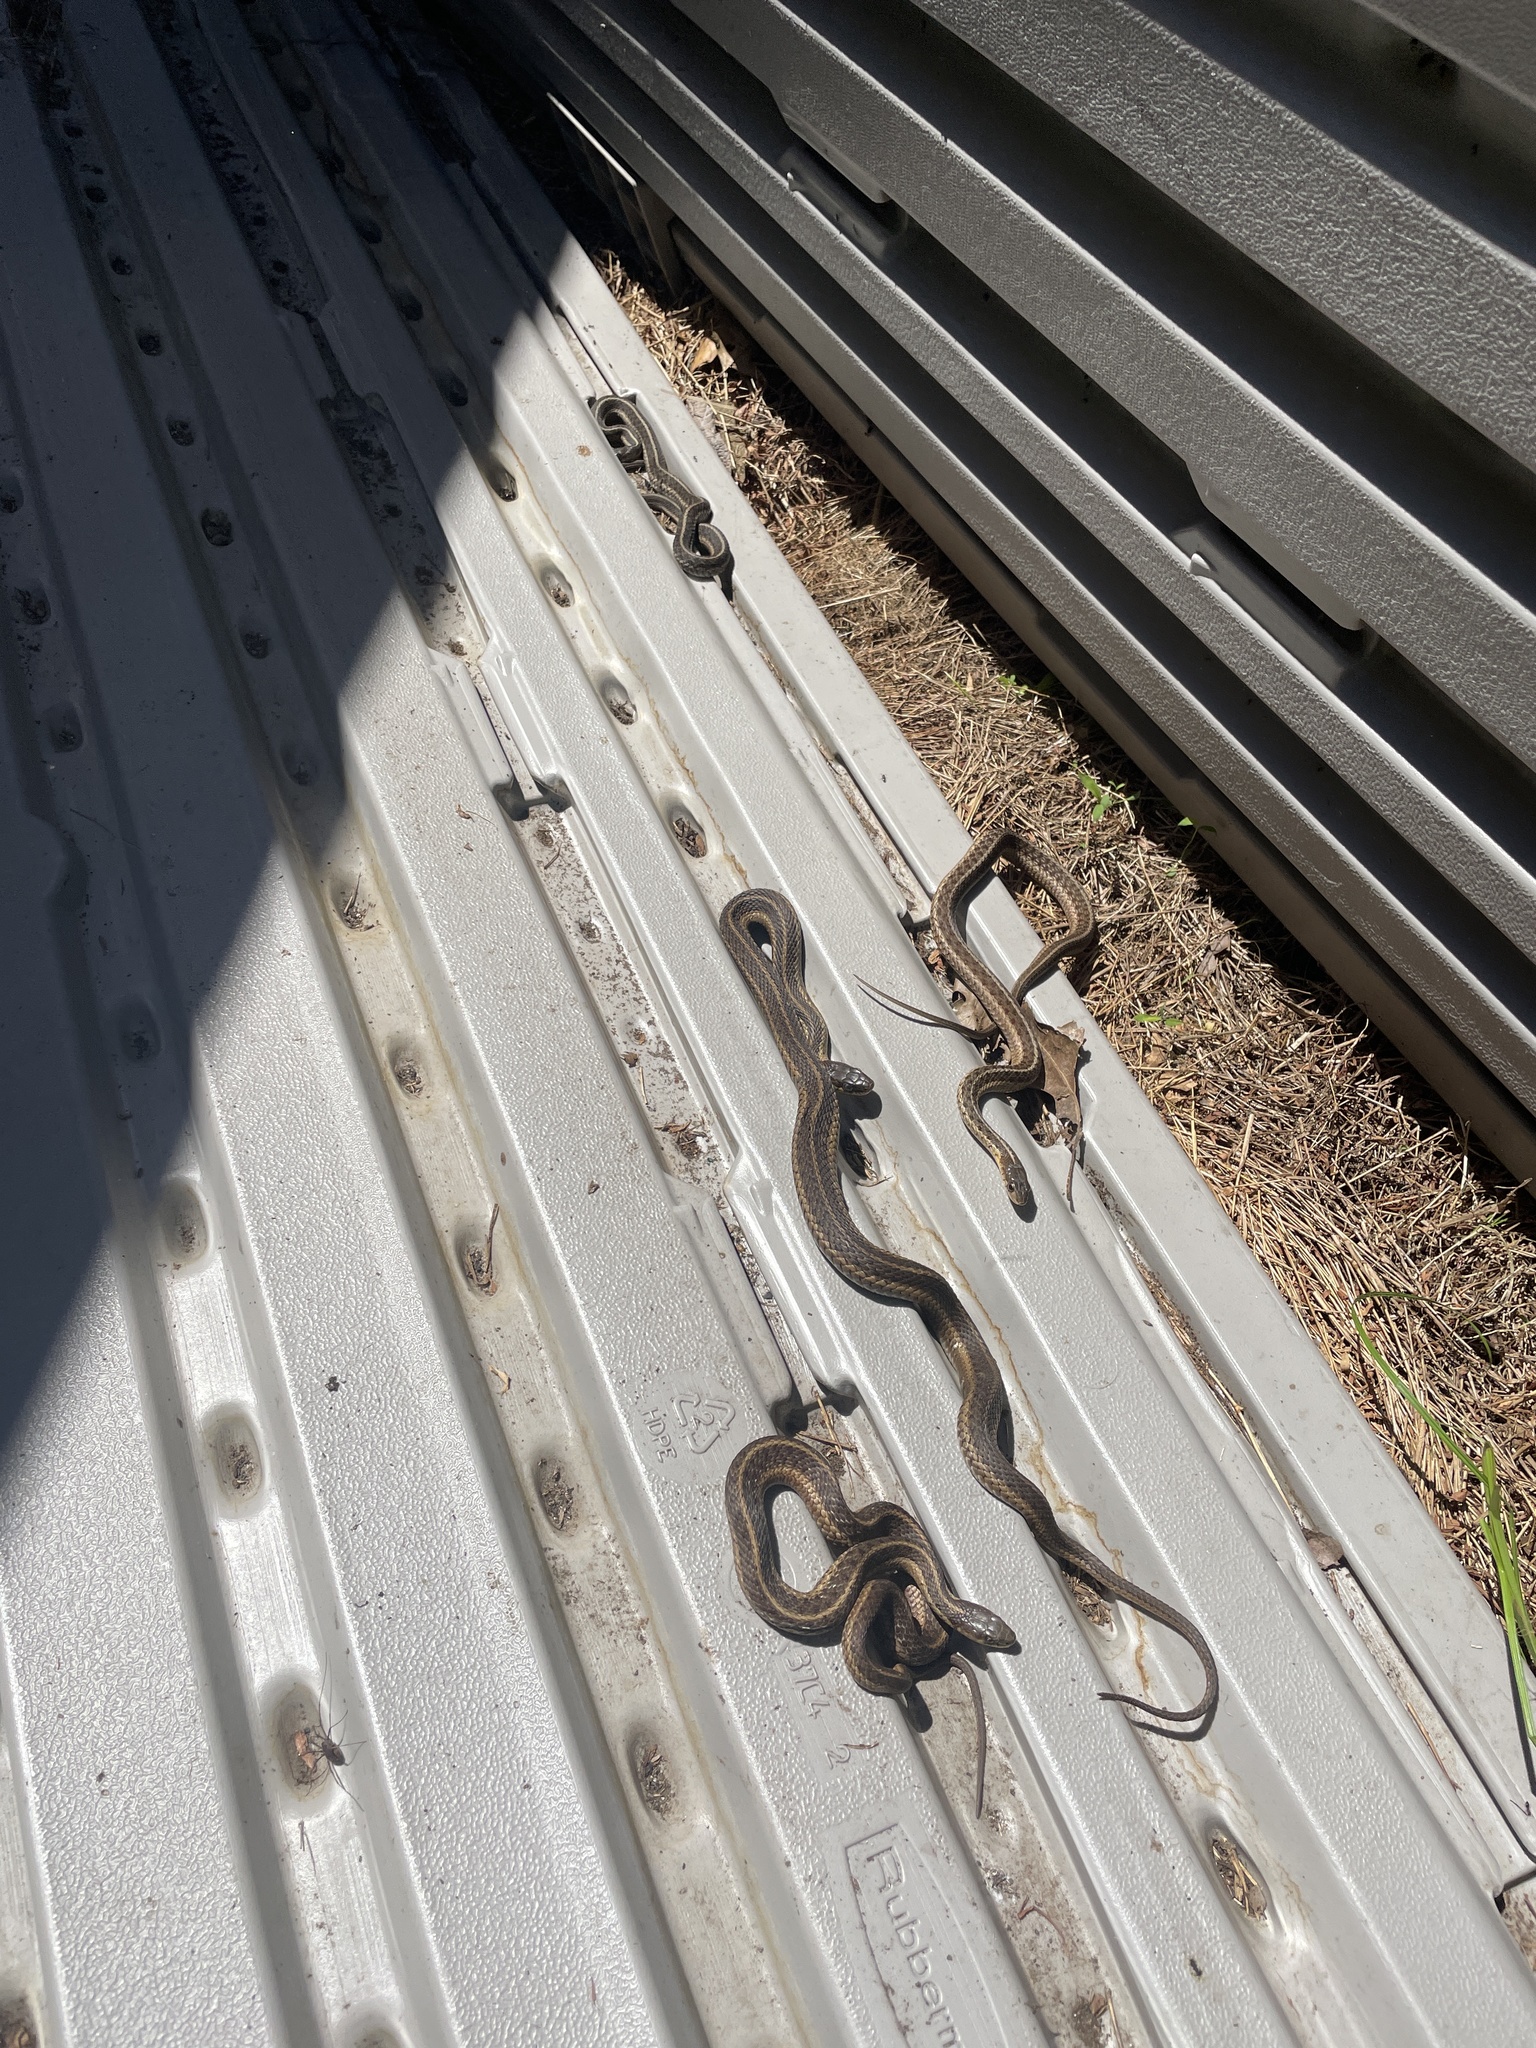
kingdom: Animalia
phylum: Chordata
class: Squamata
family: Colubridae
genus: Thamnophis
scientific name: Thamnophis sirtalis
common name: Common garter snake
